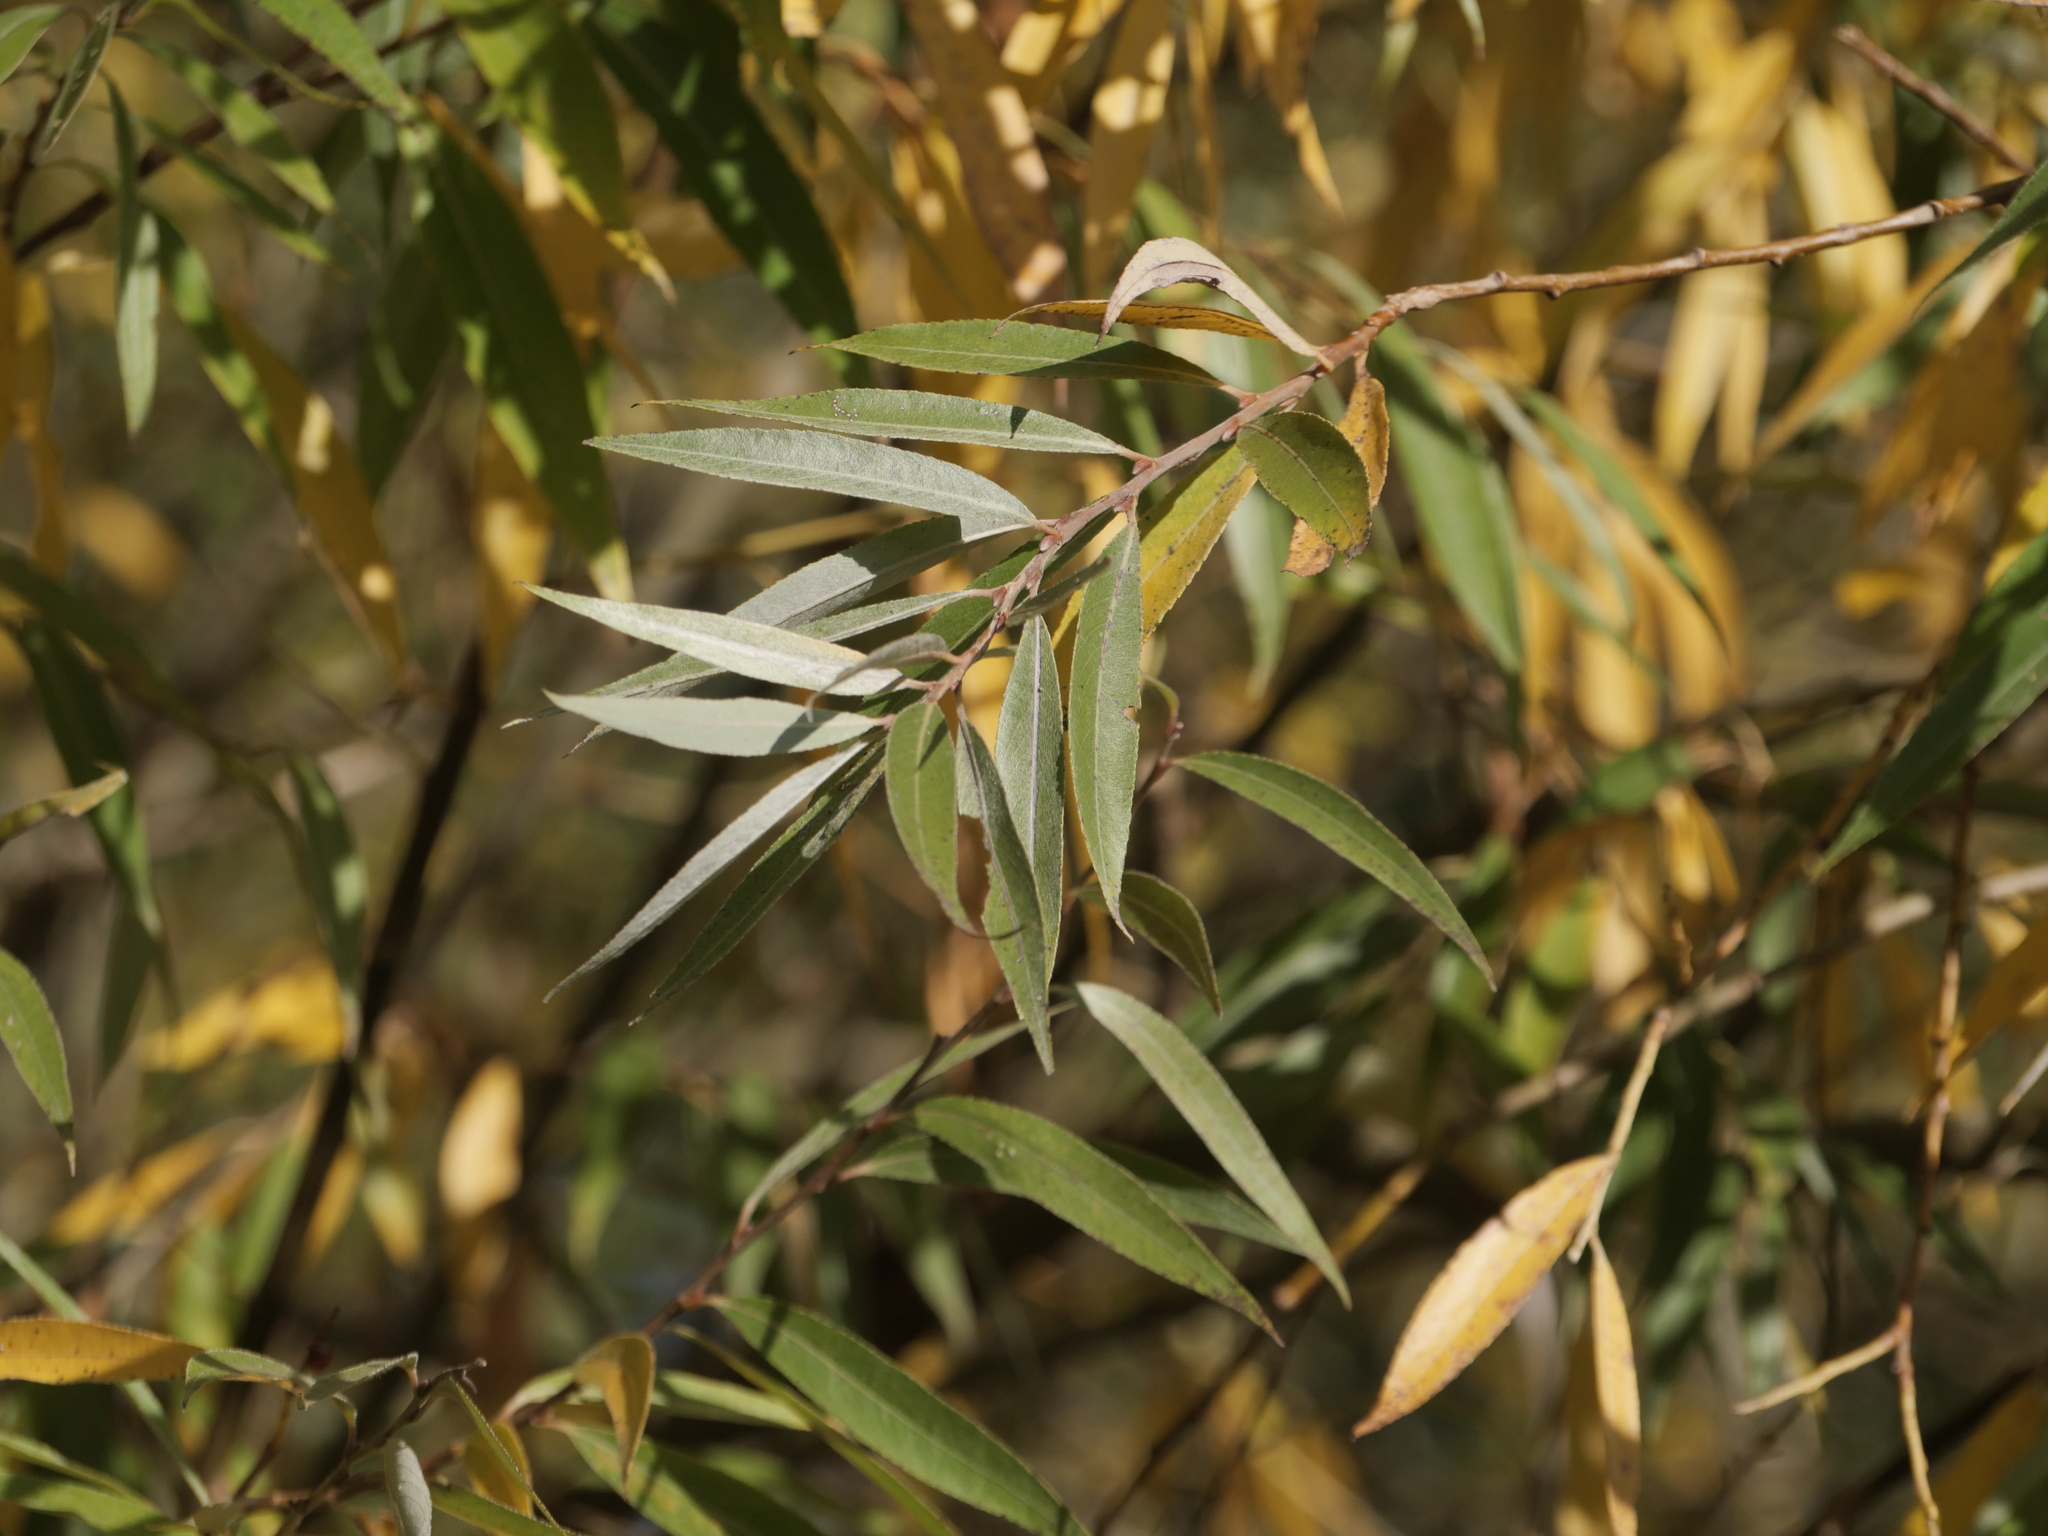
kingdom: Plantae
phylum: Tracheophyta
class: Magnoliopsida
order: Malpighiales
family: Salicaceae
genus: Salix
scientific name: Salix alba
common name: White willow
